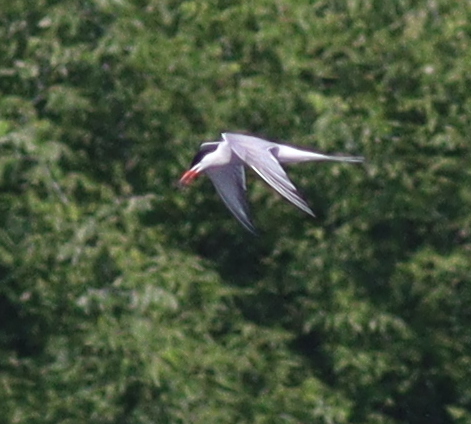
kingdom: Animalia
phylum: Chordata
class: Aves
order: Charadriiformes
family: Laridae
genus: Sterna
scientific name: Sterna hirundo
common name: Common tern
